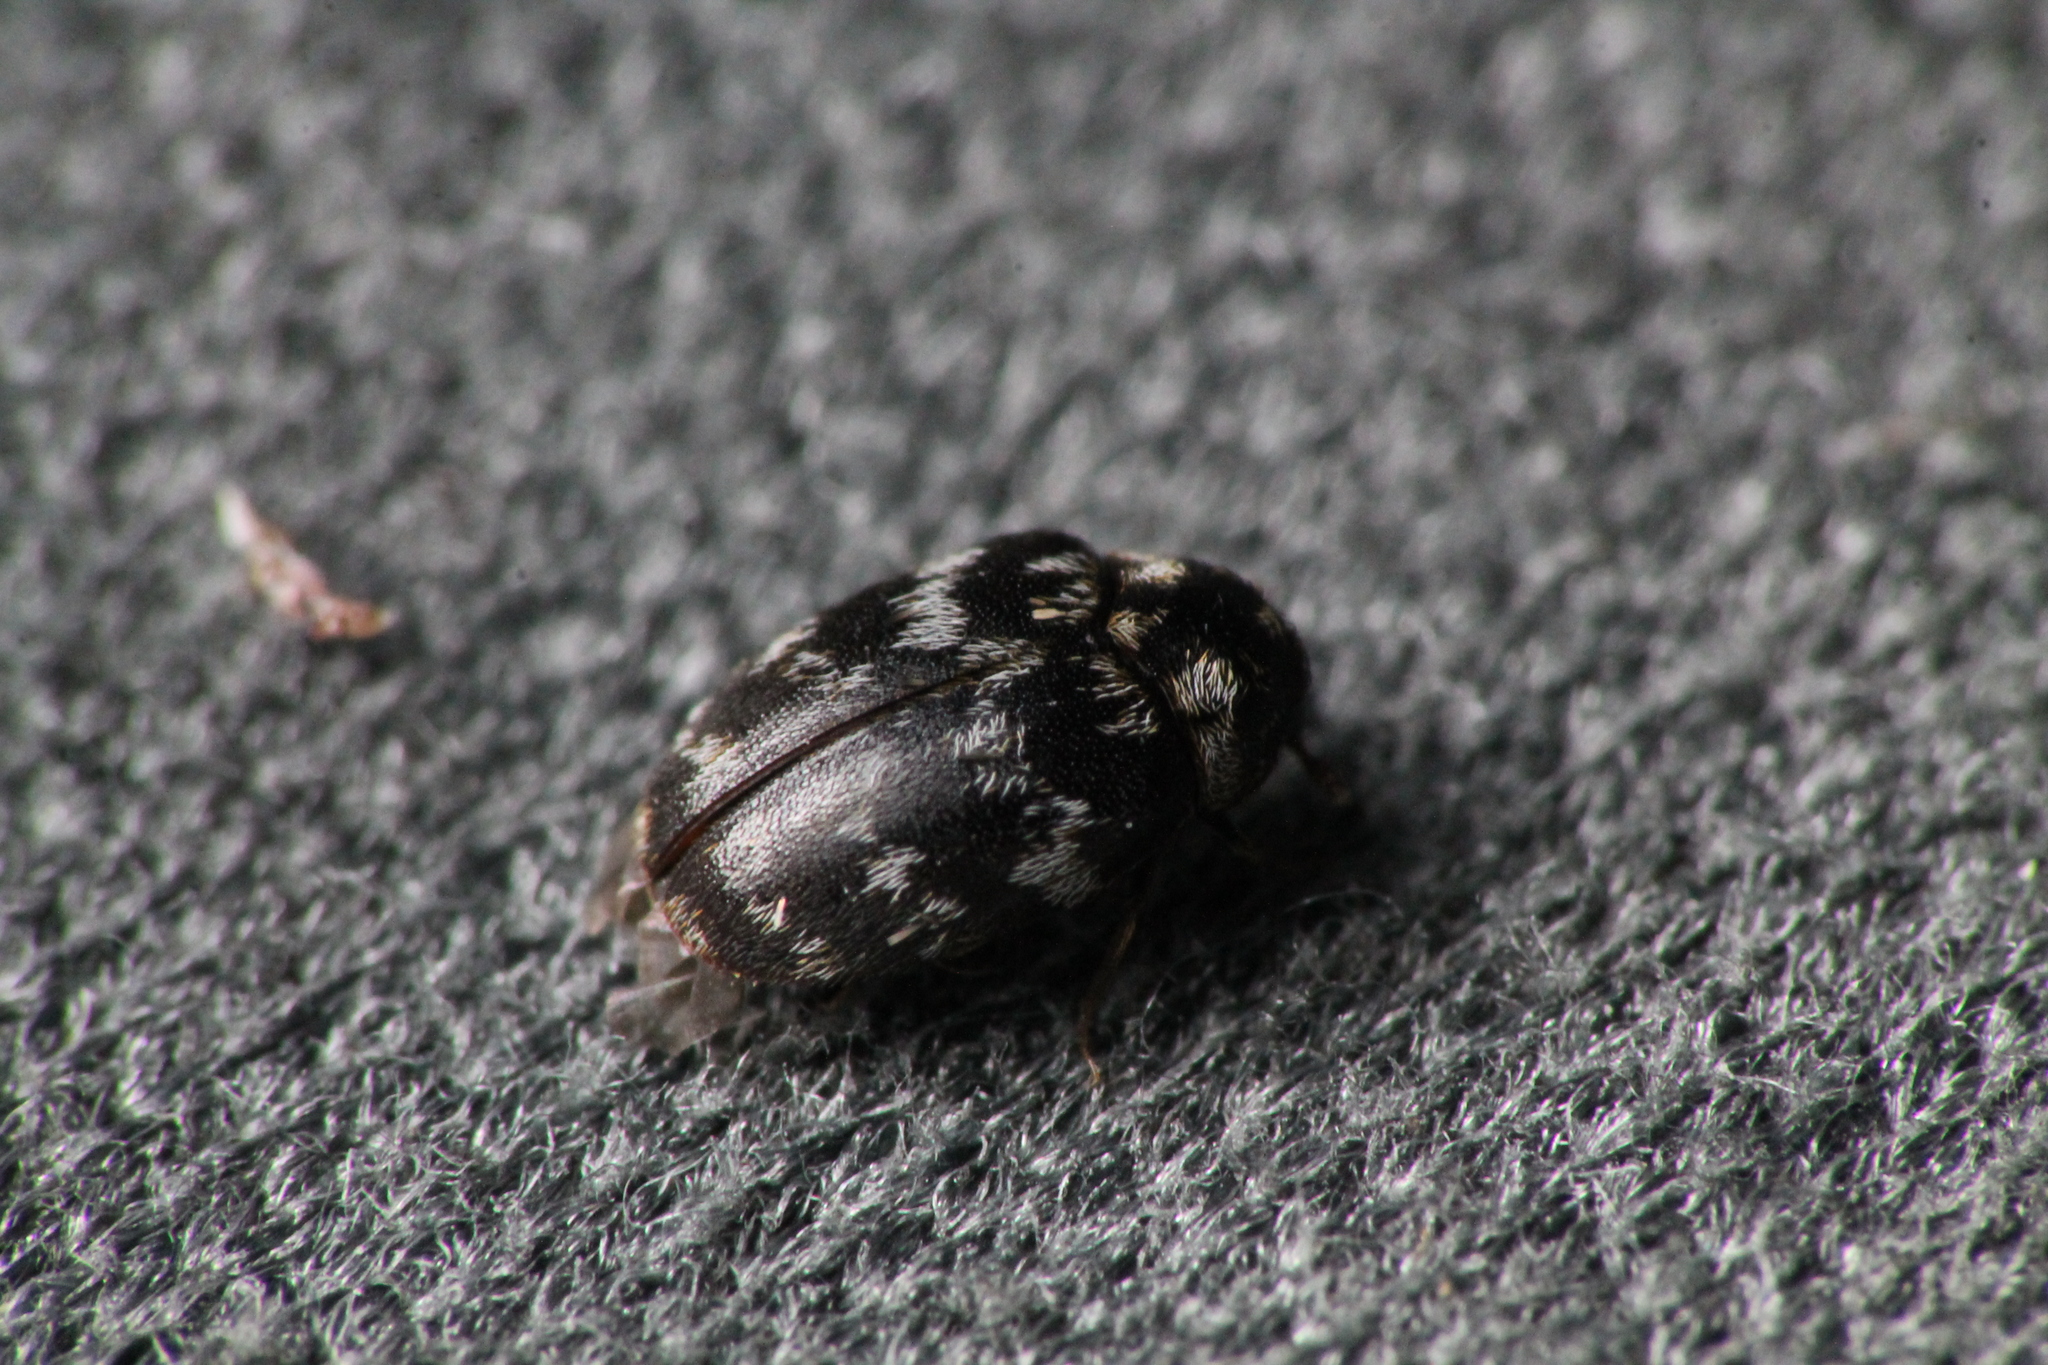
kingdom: Animalia
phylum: Arthropoda
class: Insecta
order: Coleoptera
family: Dermestidae
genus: Anthrenocerus
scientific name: Anthrenocerus australis
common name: Australian carpet beetle
